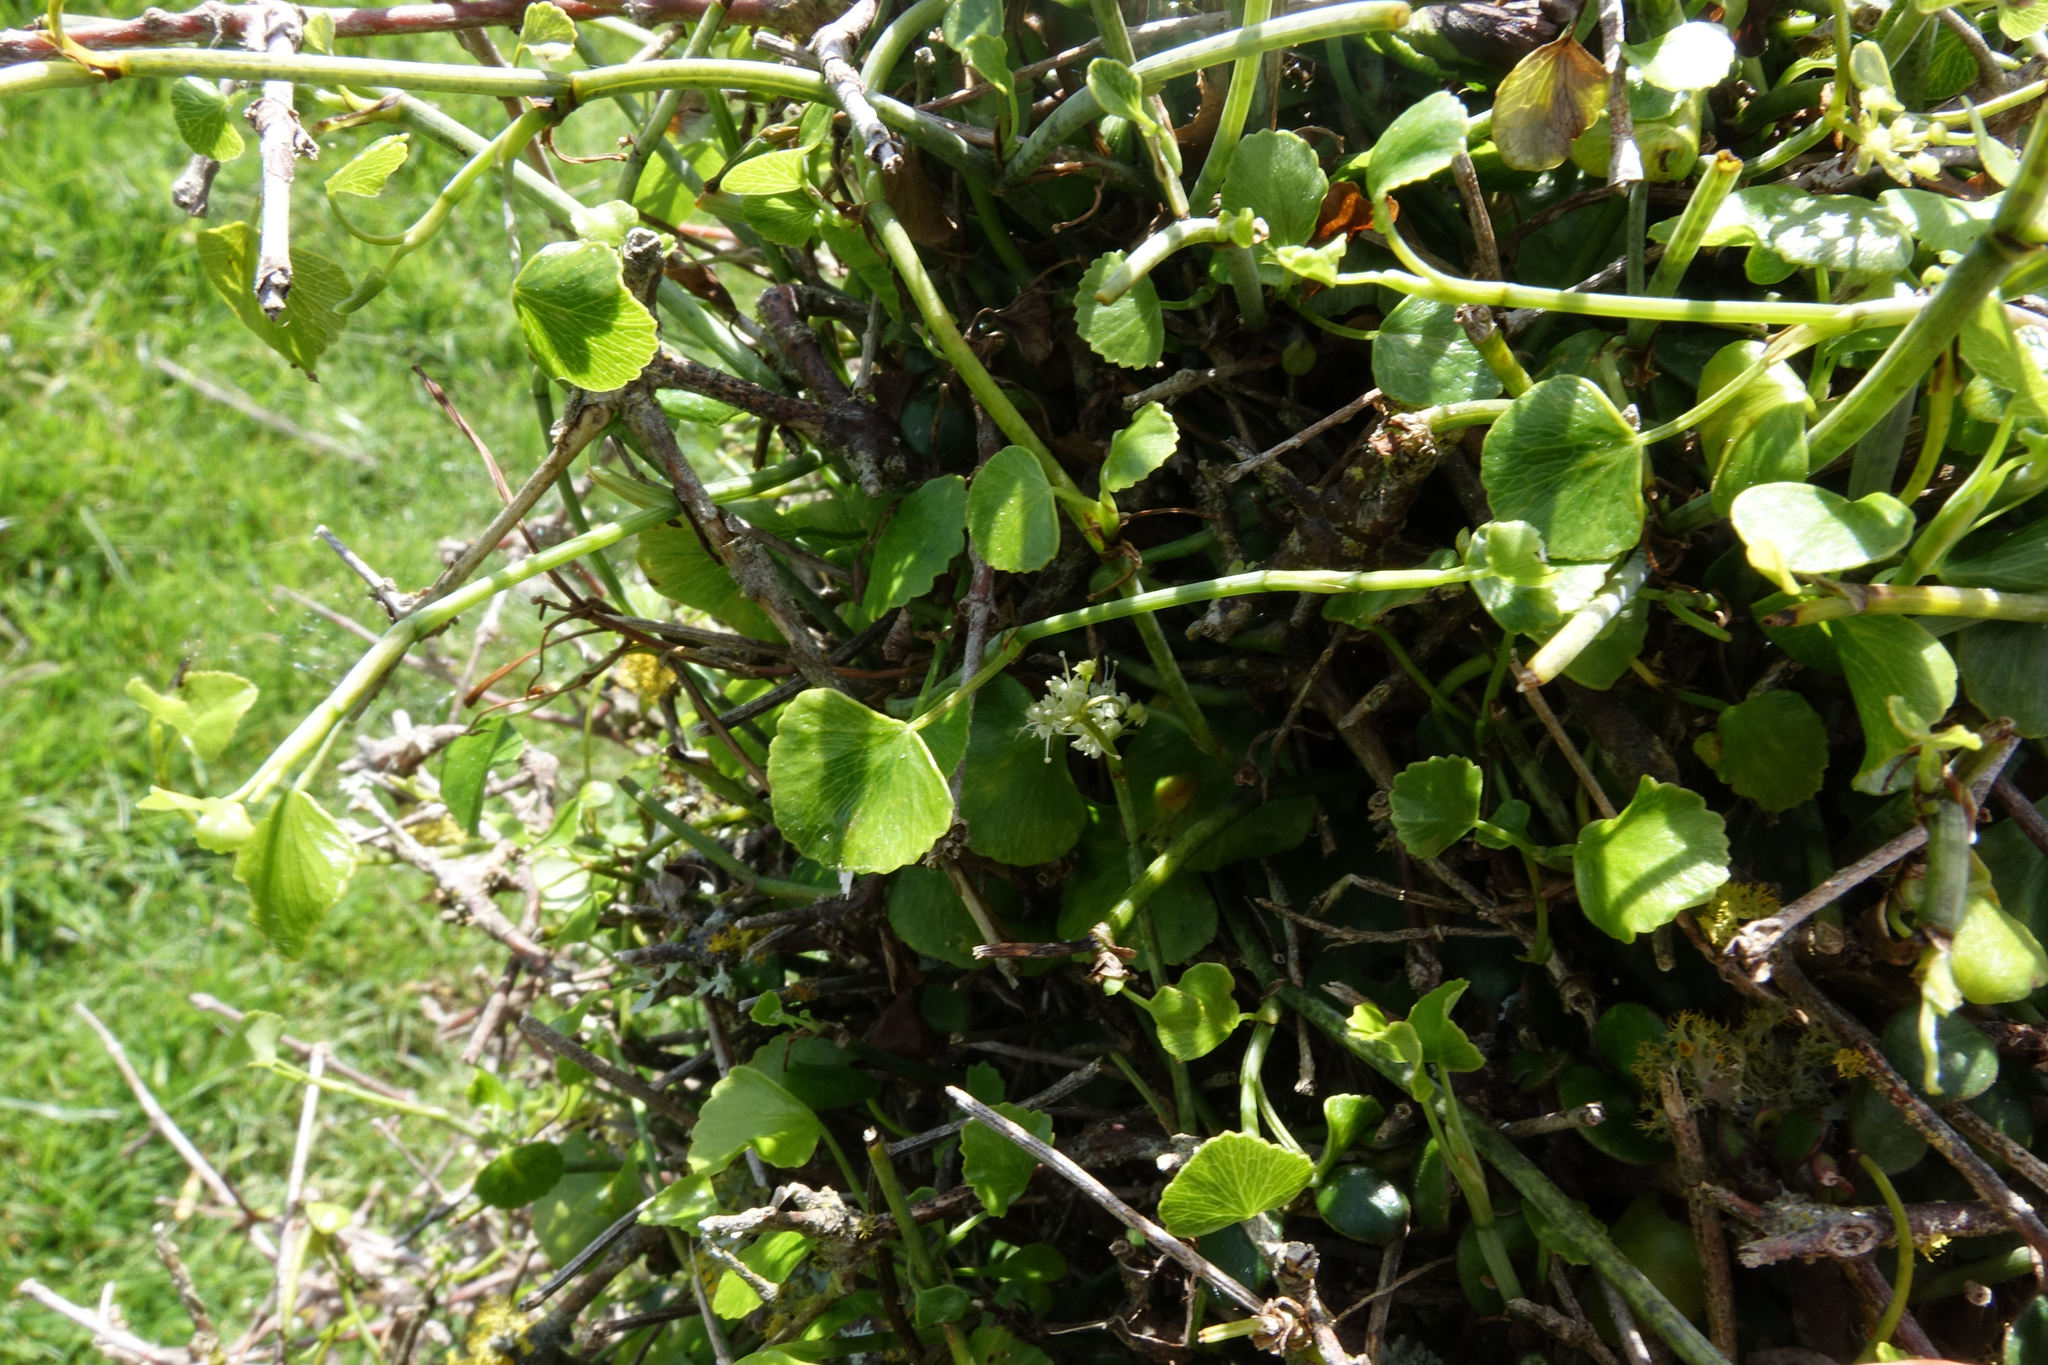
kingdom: Plantae
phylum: Tracheophyta
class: Magnoliopsida
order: Apiales
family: Apiaceae
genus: Scandia
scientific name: Scandia geniculata
